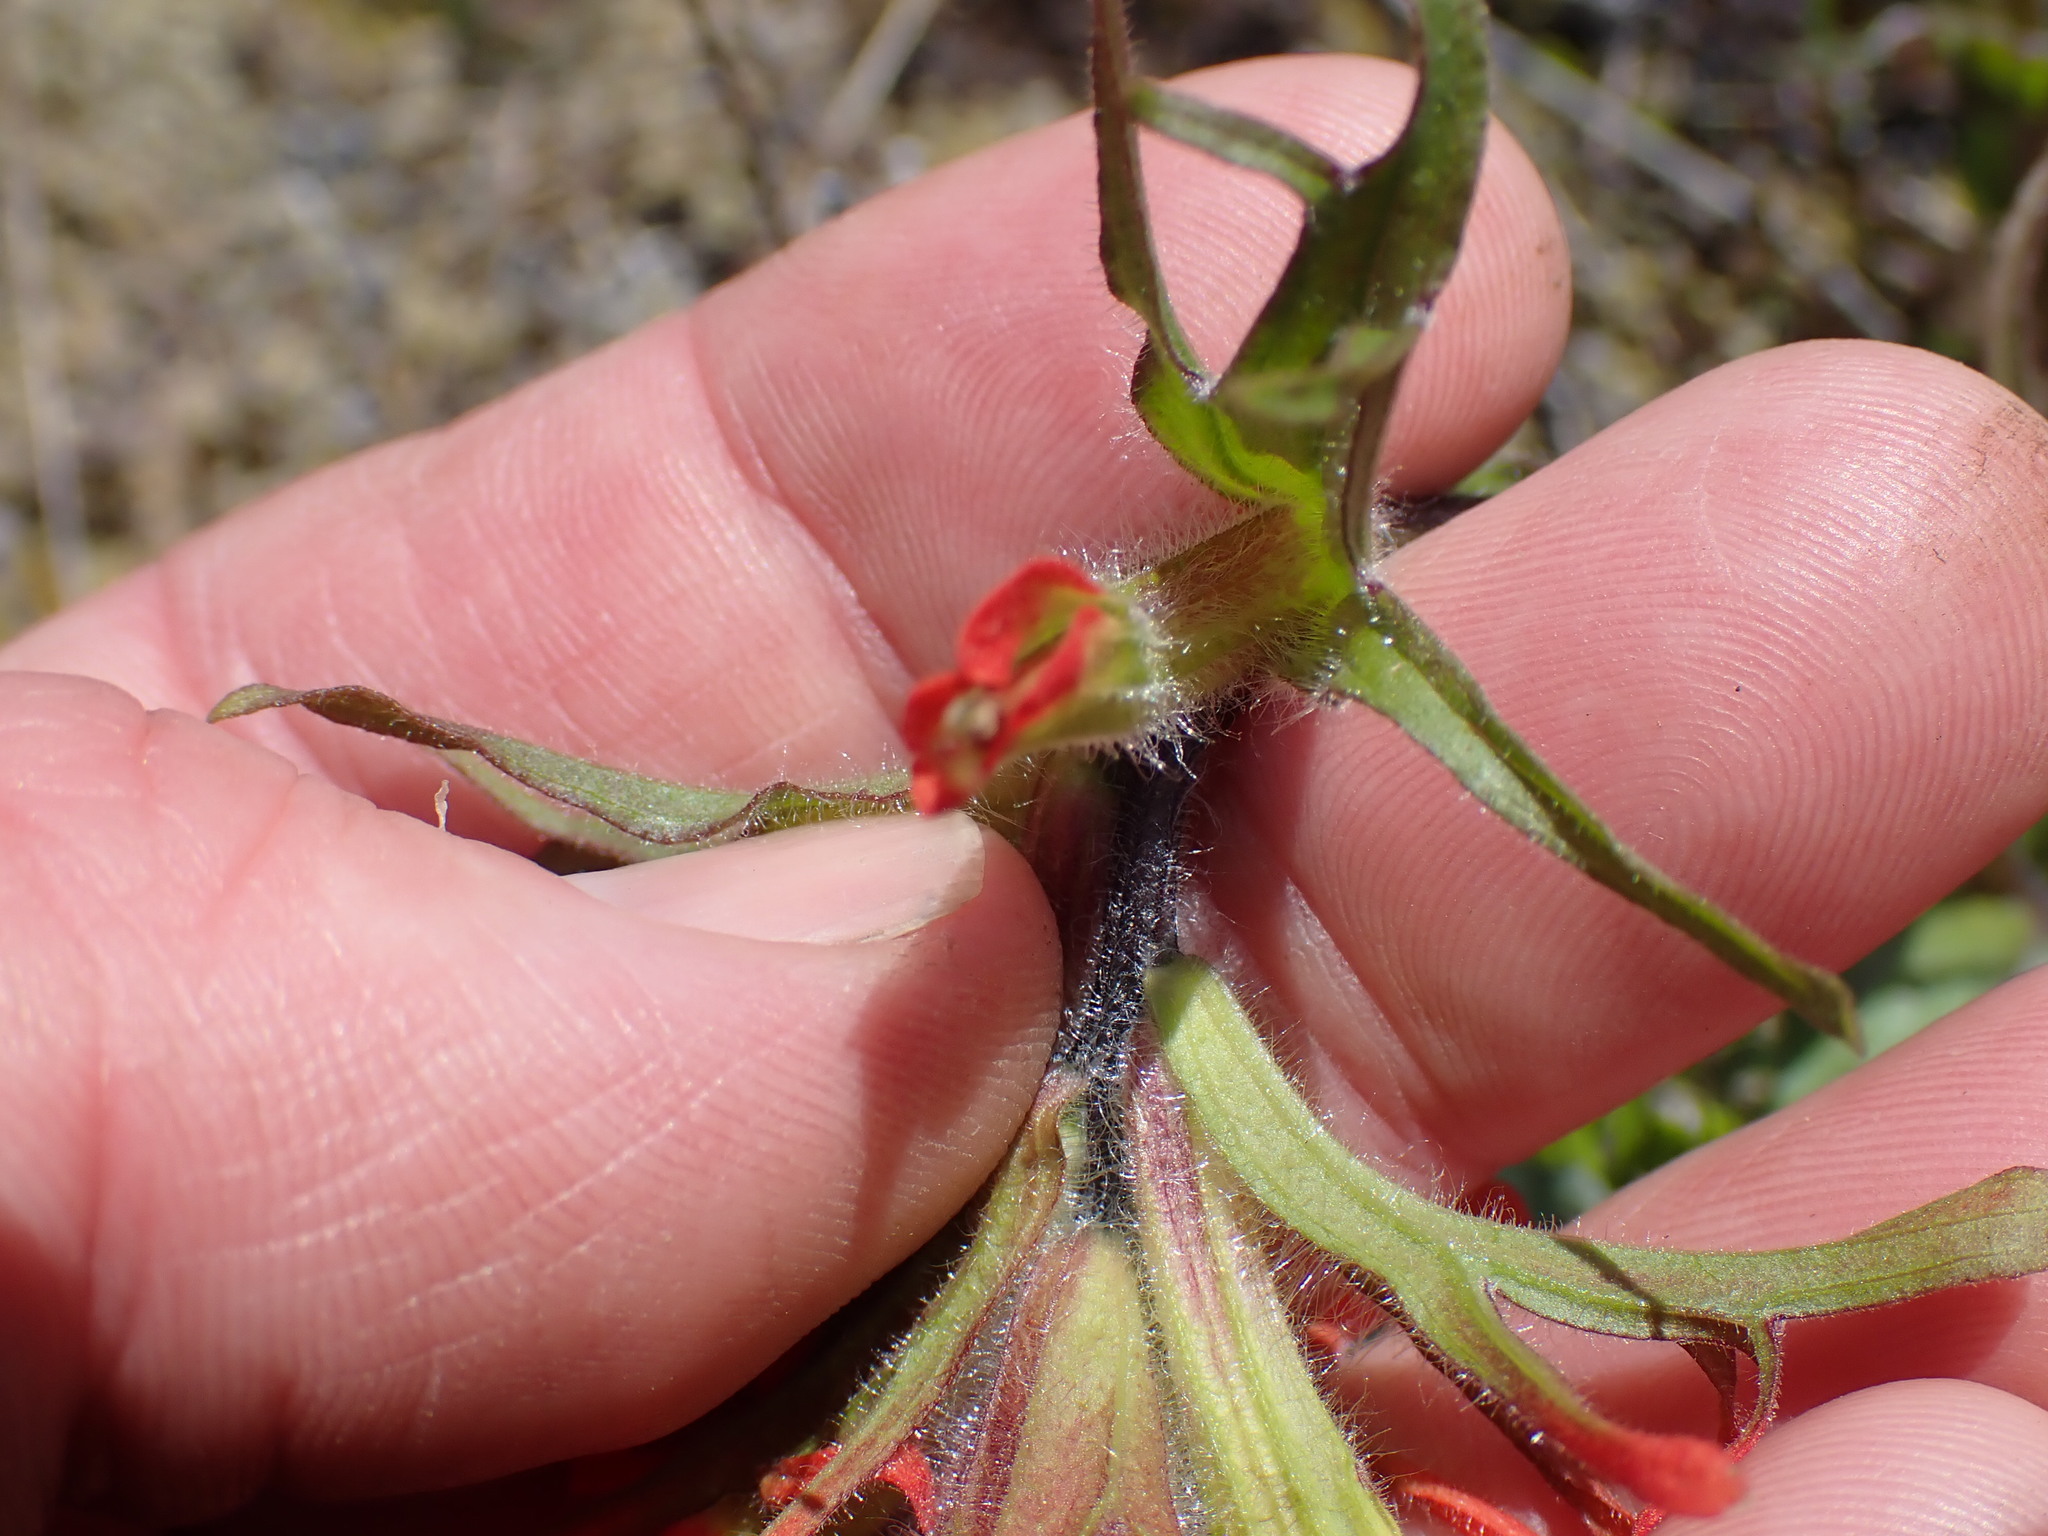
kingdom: Plantae
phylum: Tracheophyta
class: Magnoliopsida
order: Lamiales
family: Orobanchaceae
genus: Castilleja
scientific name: Castilleja miniata
